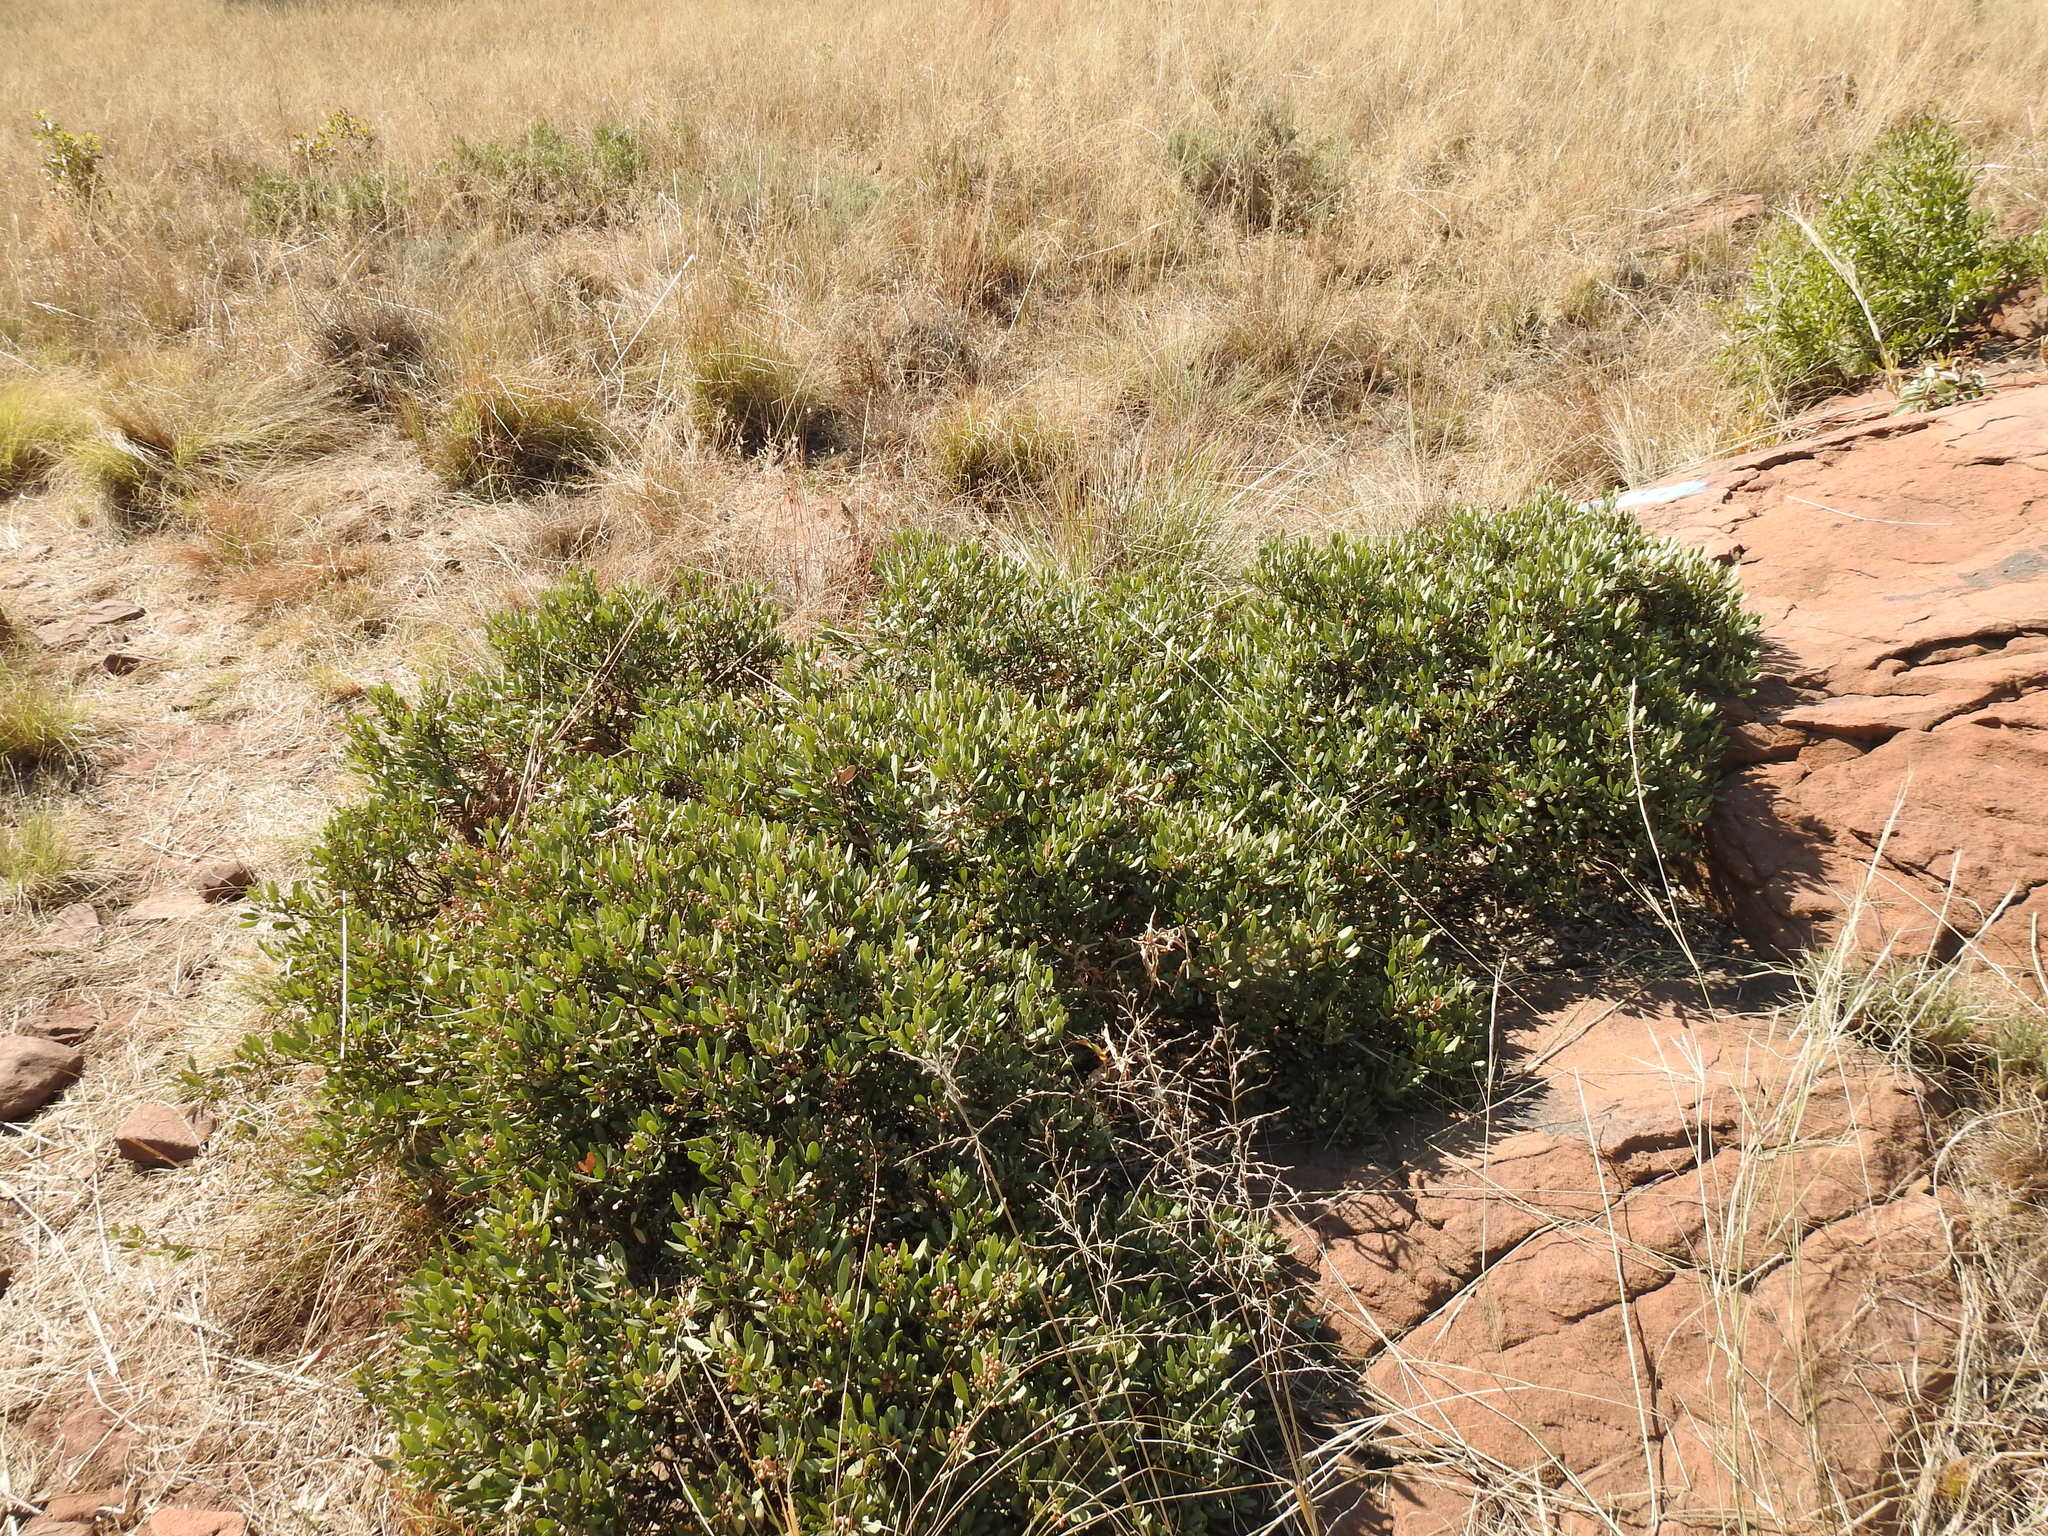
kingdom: Plantae
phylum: Tracheophyta
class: Magnoliopsida
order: Sapindales
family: Anacardiaceae
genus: Searsia
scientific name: Searsia magalismontana
